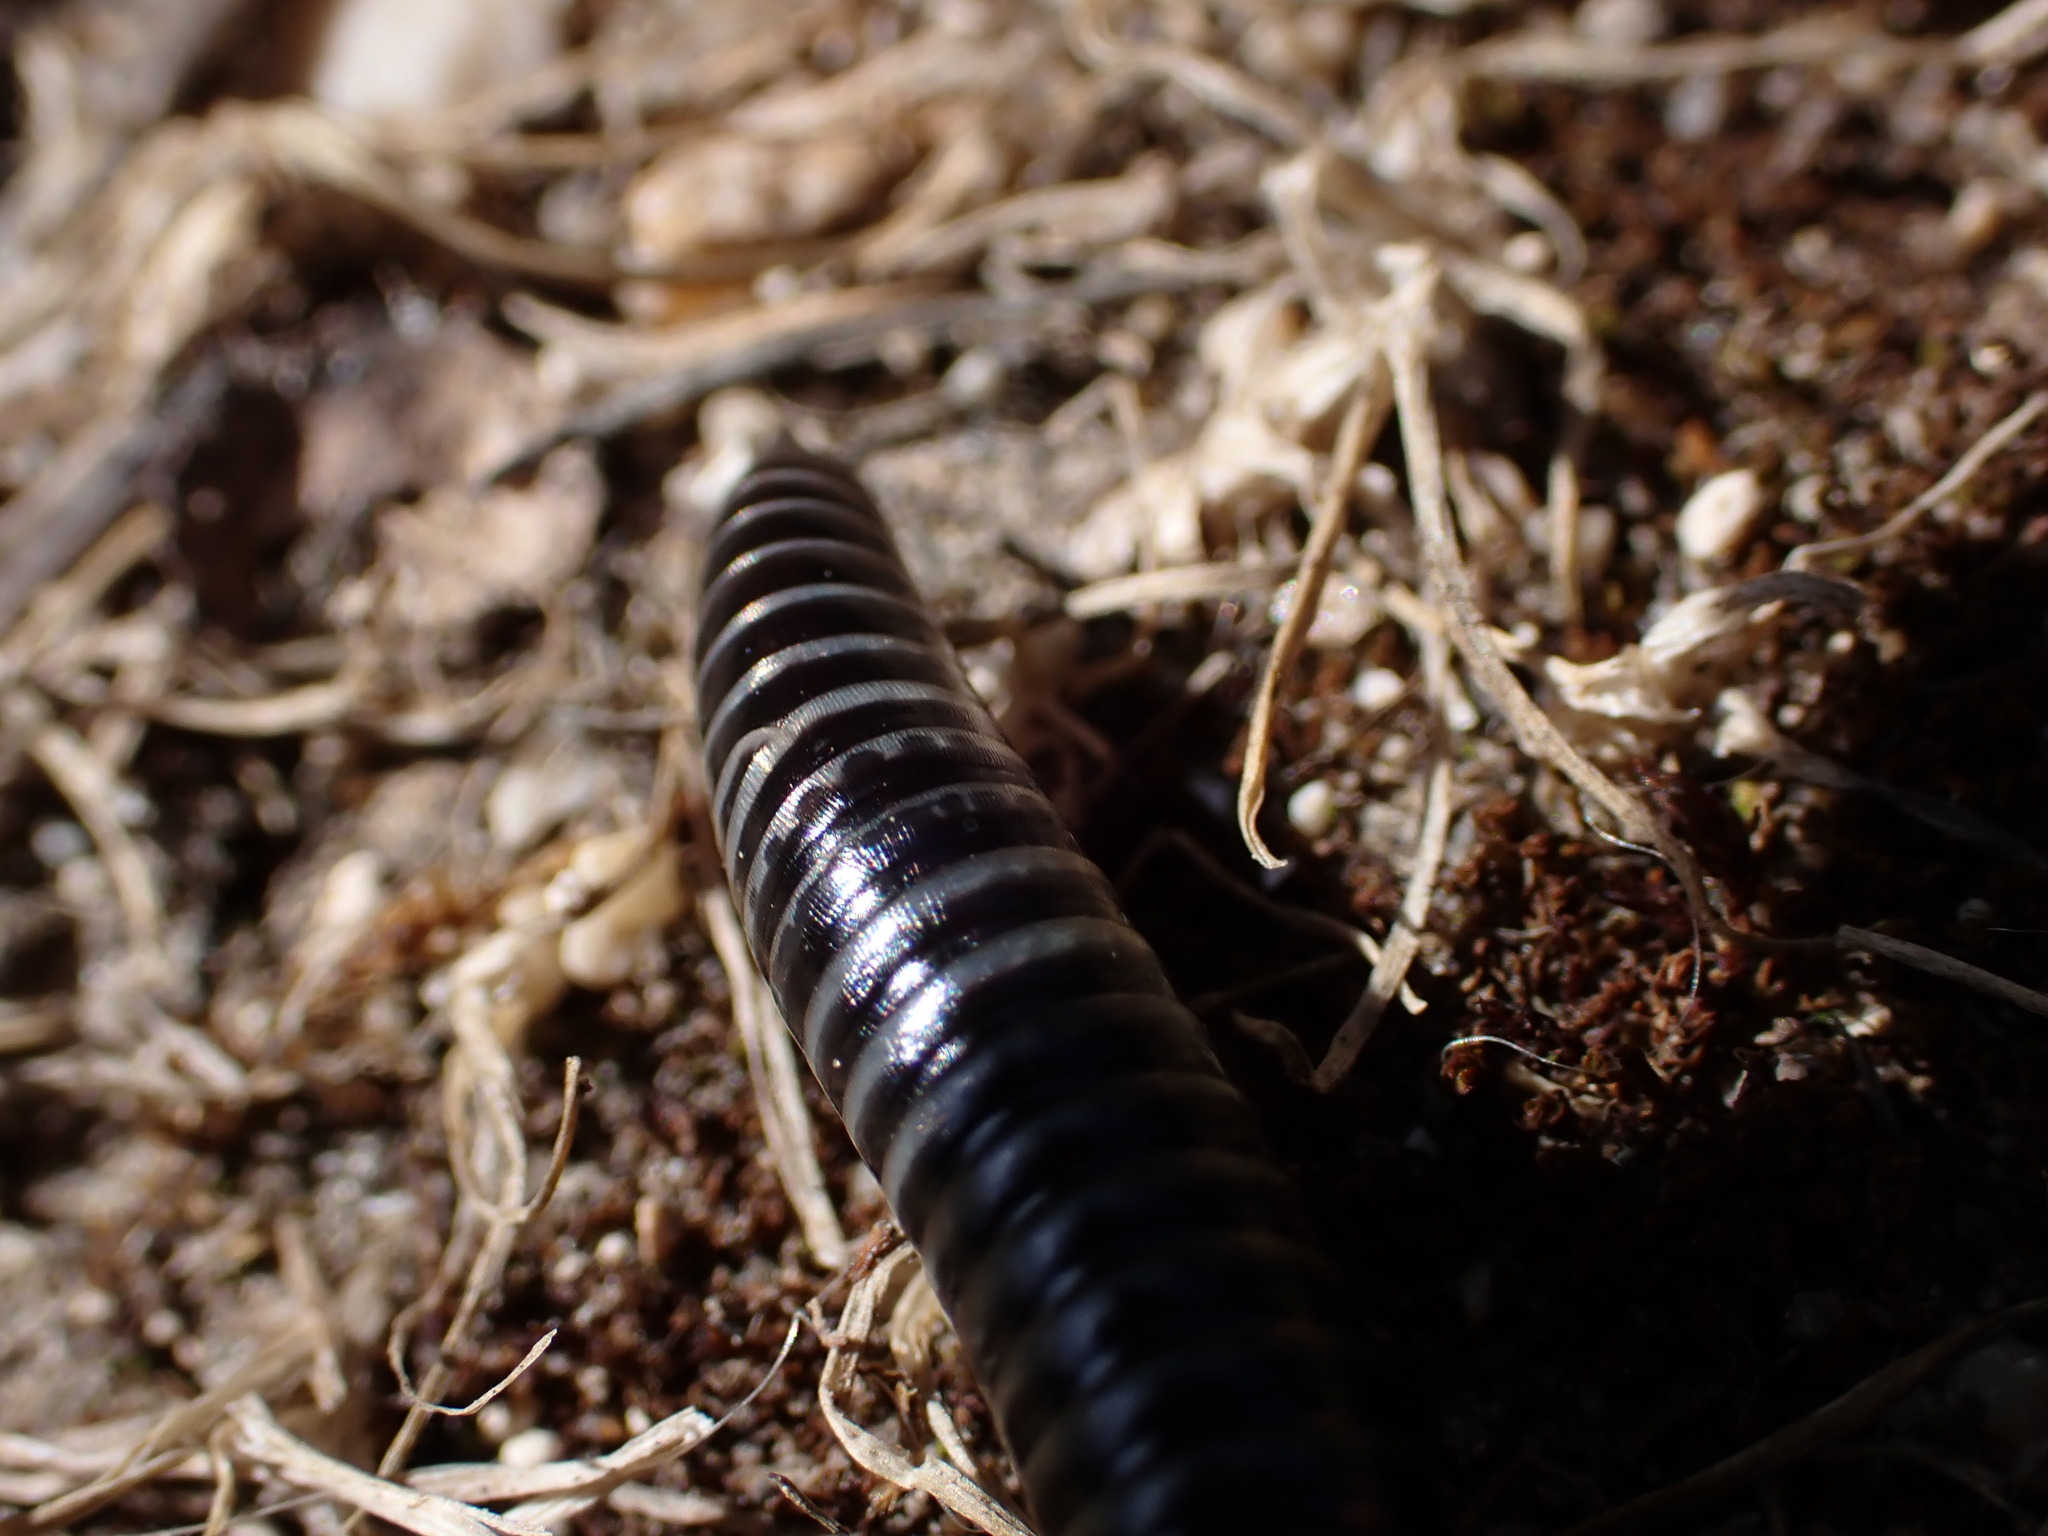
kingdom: Animalia
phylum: Arthropoda
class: Diplopoda
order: Julida
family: Julidae
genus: Ommatoiulus
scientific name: Ommatoiulus sabulosus
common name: Striped millipede
